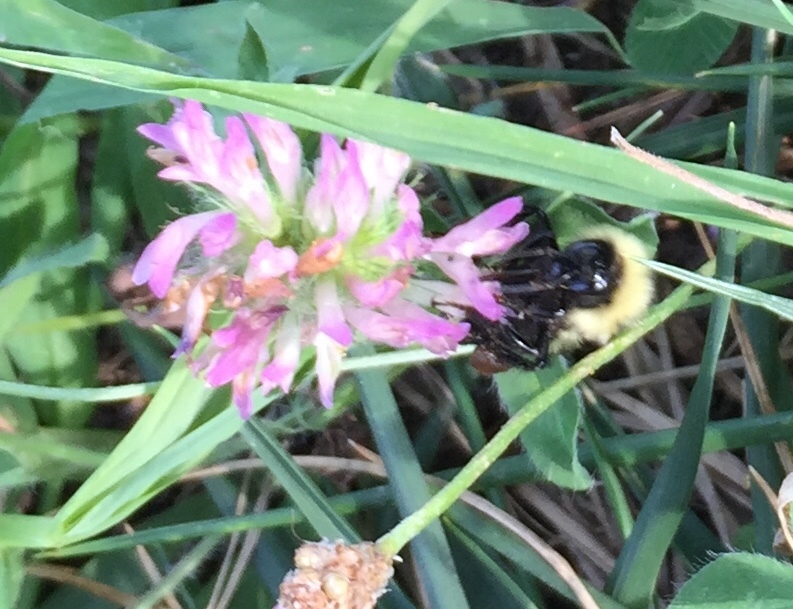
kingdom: Animalia
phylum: Arthropoda
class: Insecta
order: Hymenoptera
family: Apidae
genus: Bombus
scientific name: Bombus fervidus
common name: Yellow bumble bee
